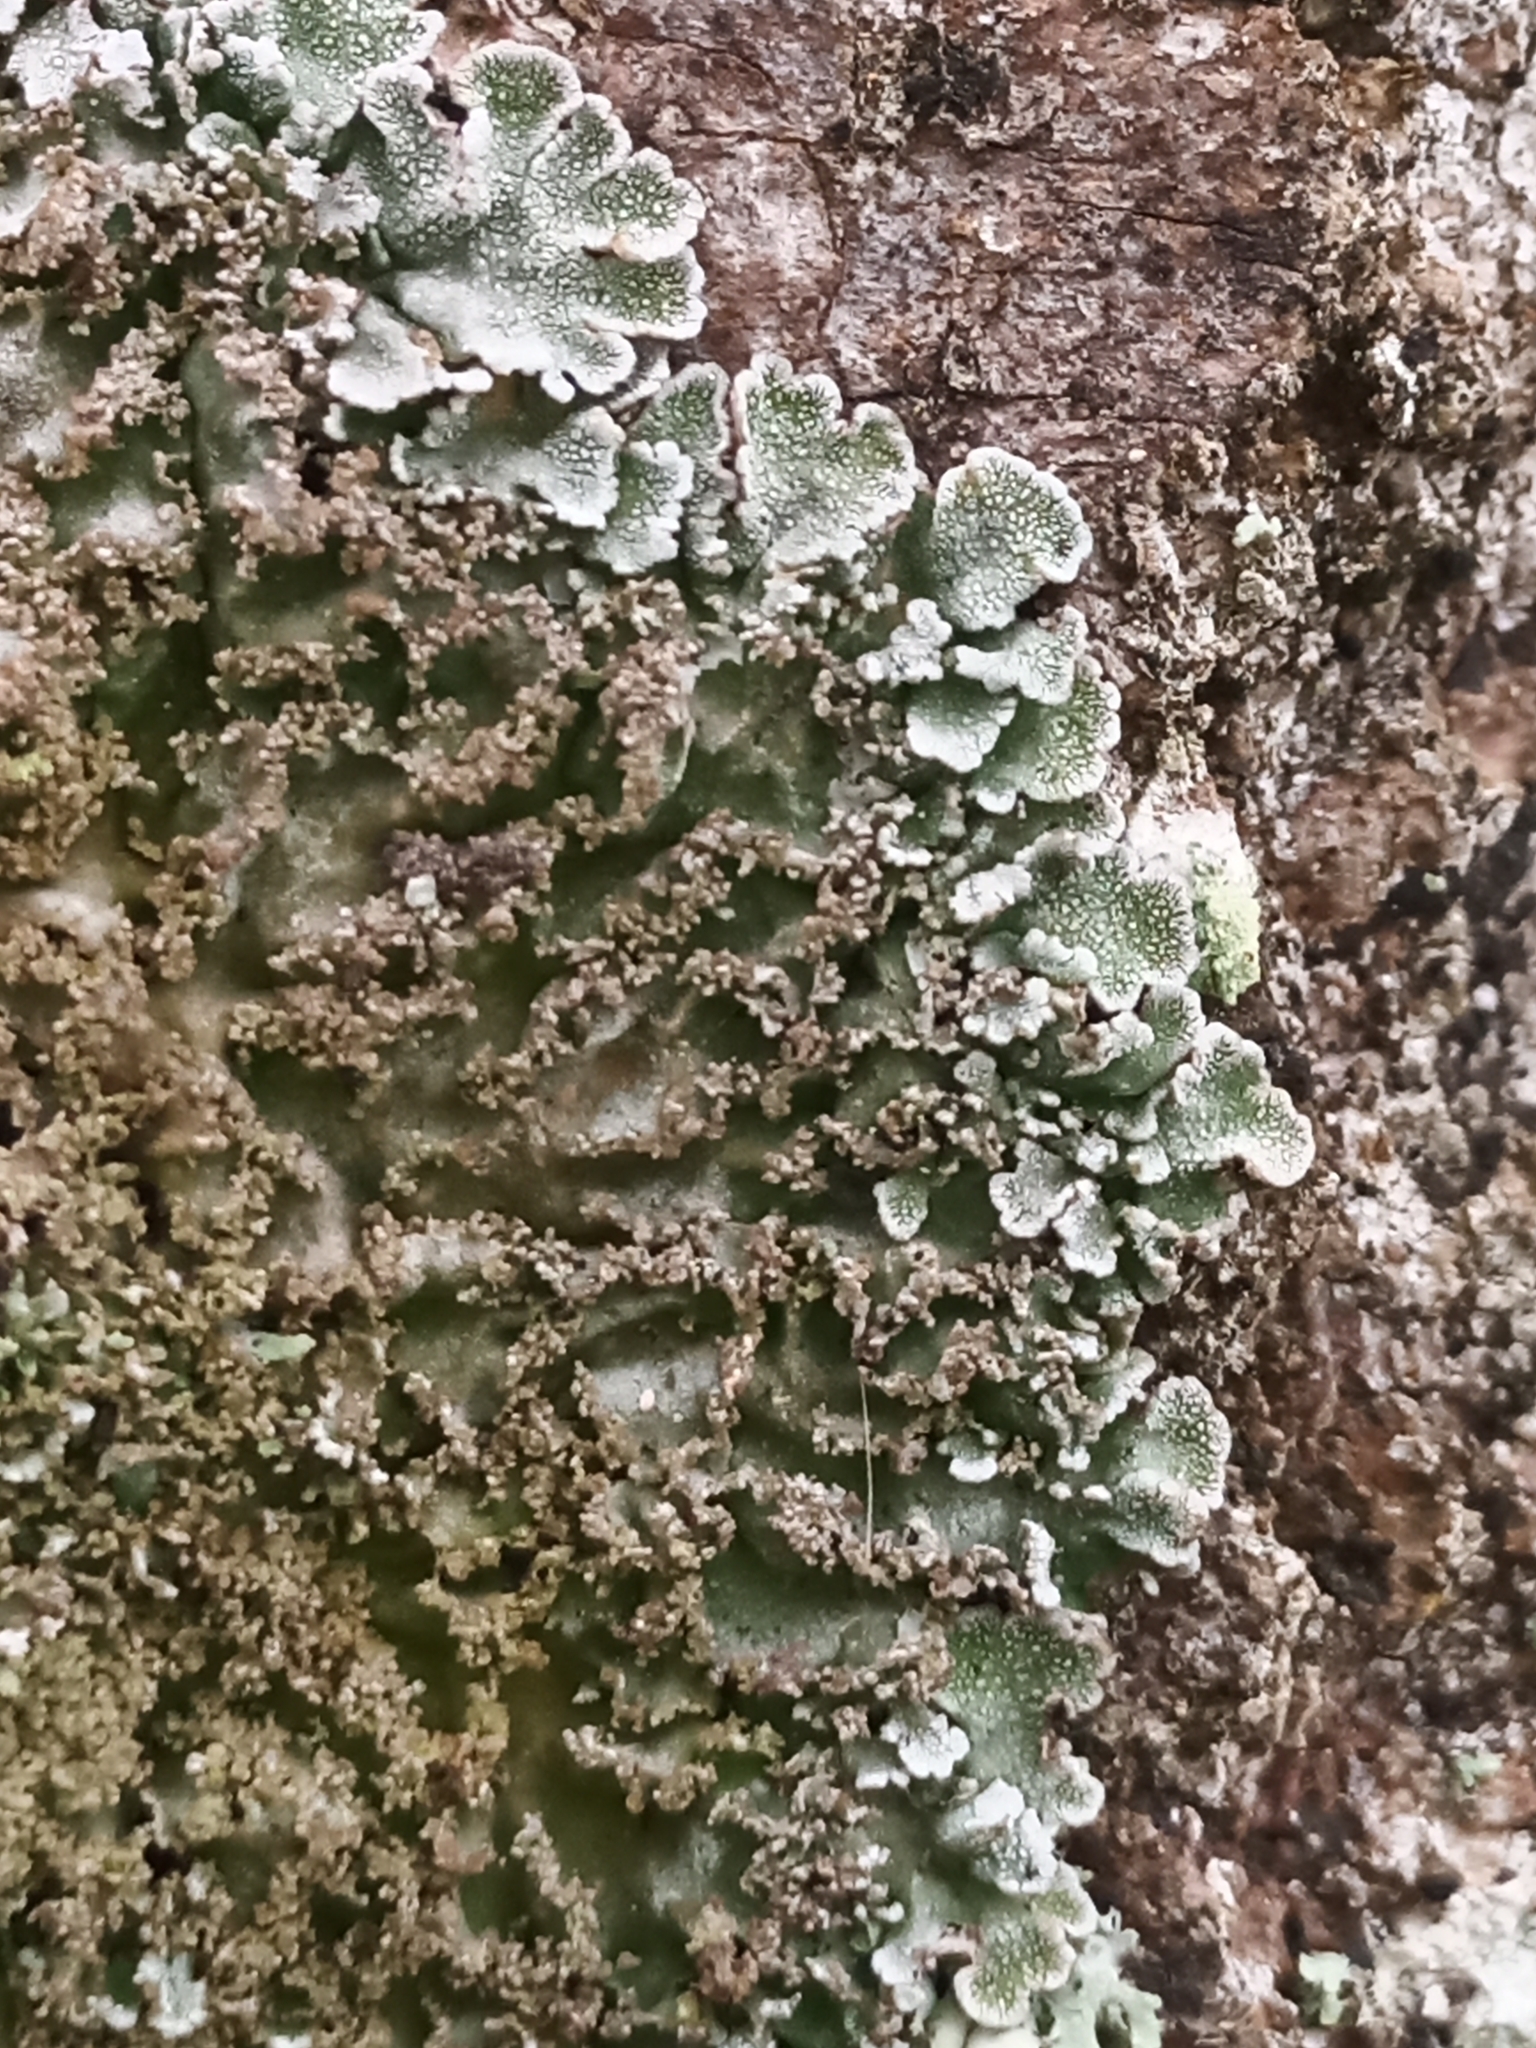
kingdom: Fungi
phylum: Ascomycota
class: Lecanoromycetes
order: Caliciales
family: Physciaceae
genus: Poeltonia
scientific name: Poeltonia grisea
